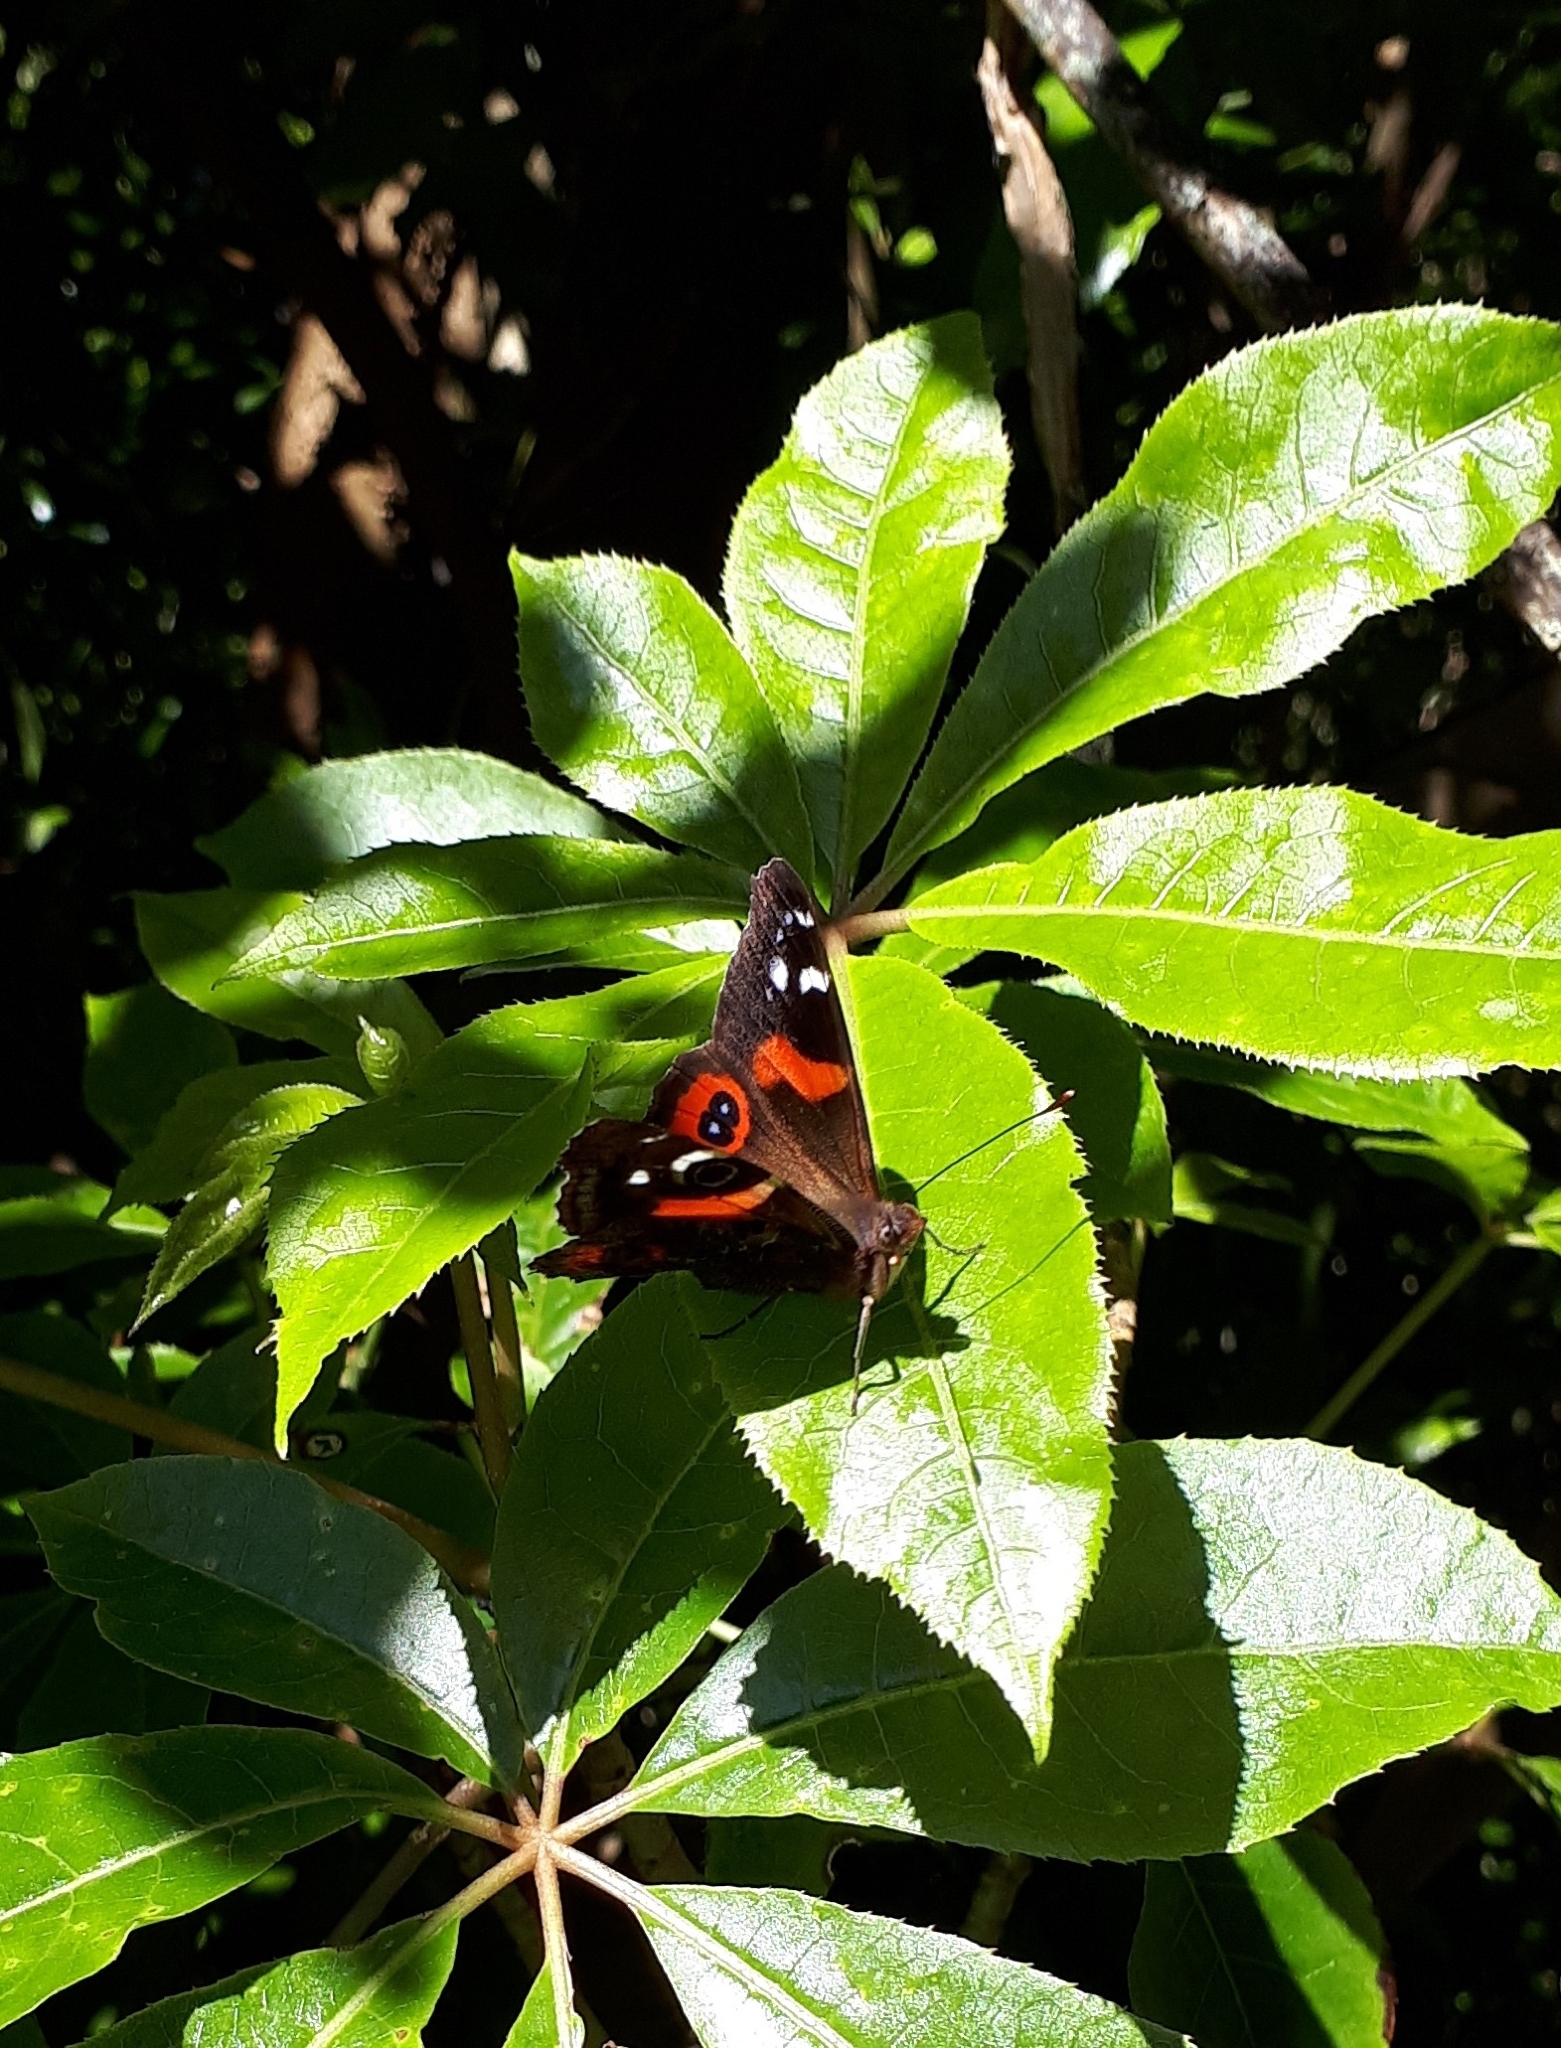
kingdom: Animalia
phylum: Arthropoda
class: Insecta
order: Lepidoptera
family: Nymphalidae
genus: Vanessa
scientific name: Vanessa gonerilla
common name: New zealand red admiral
